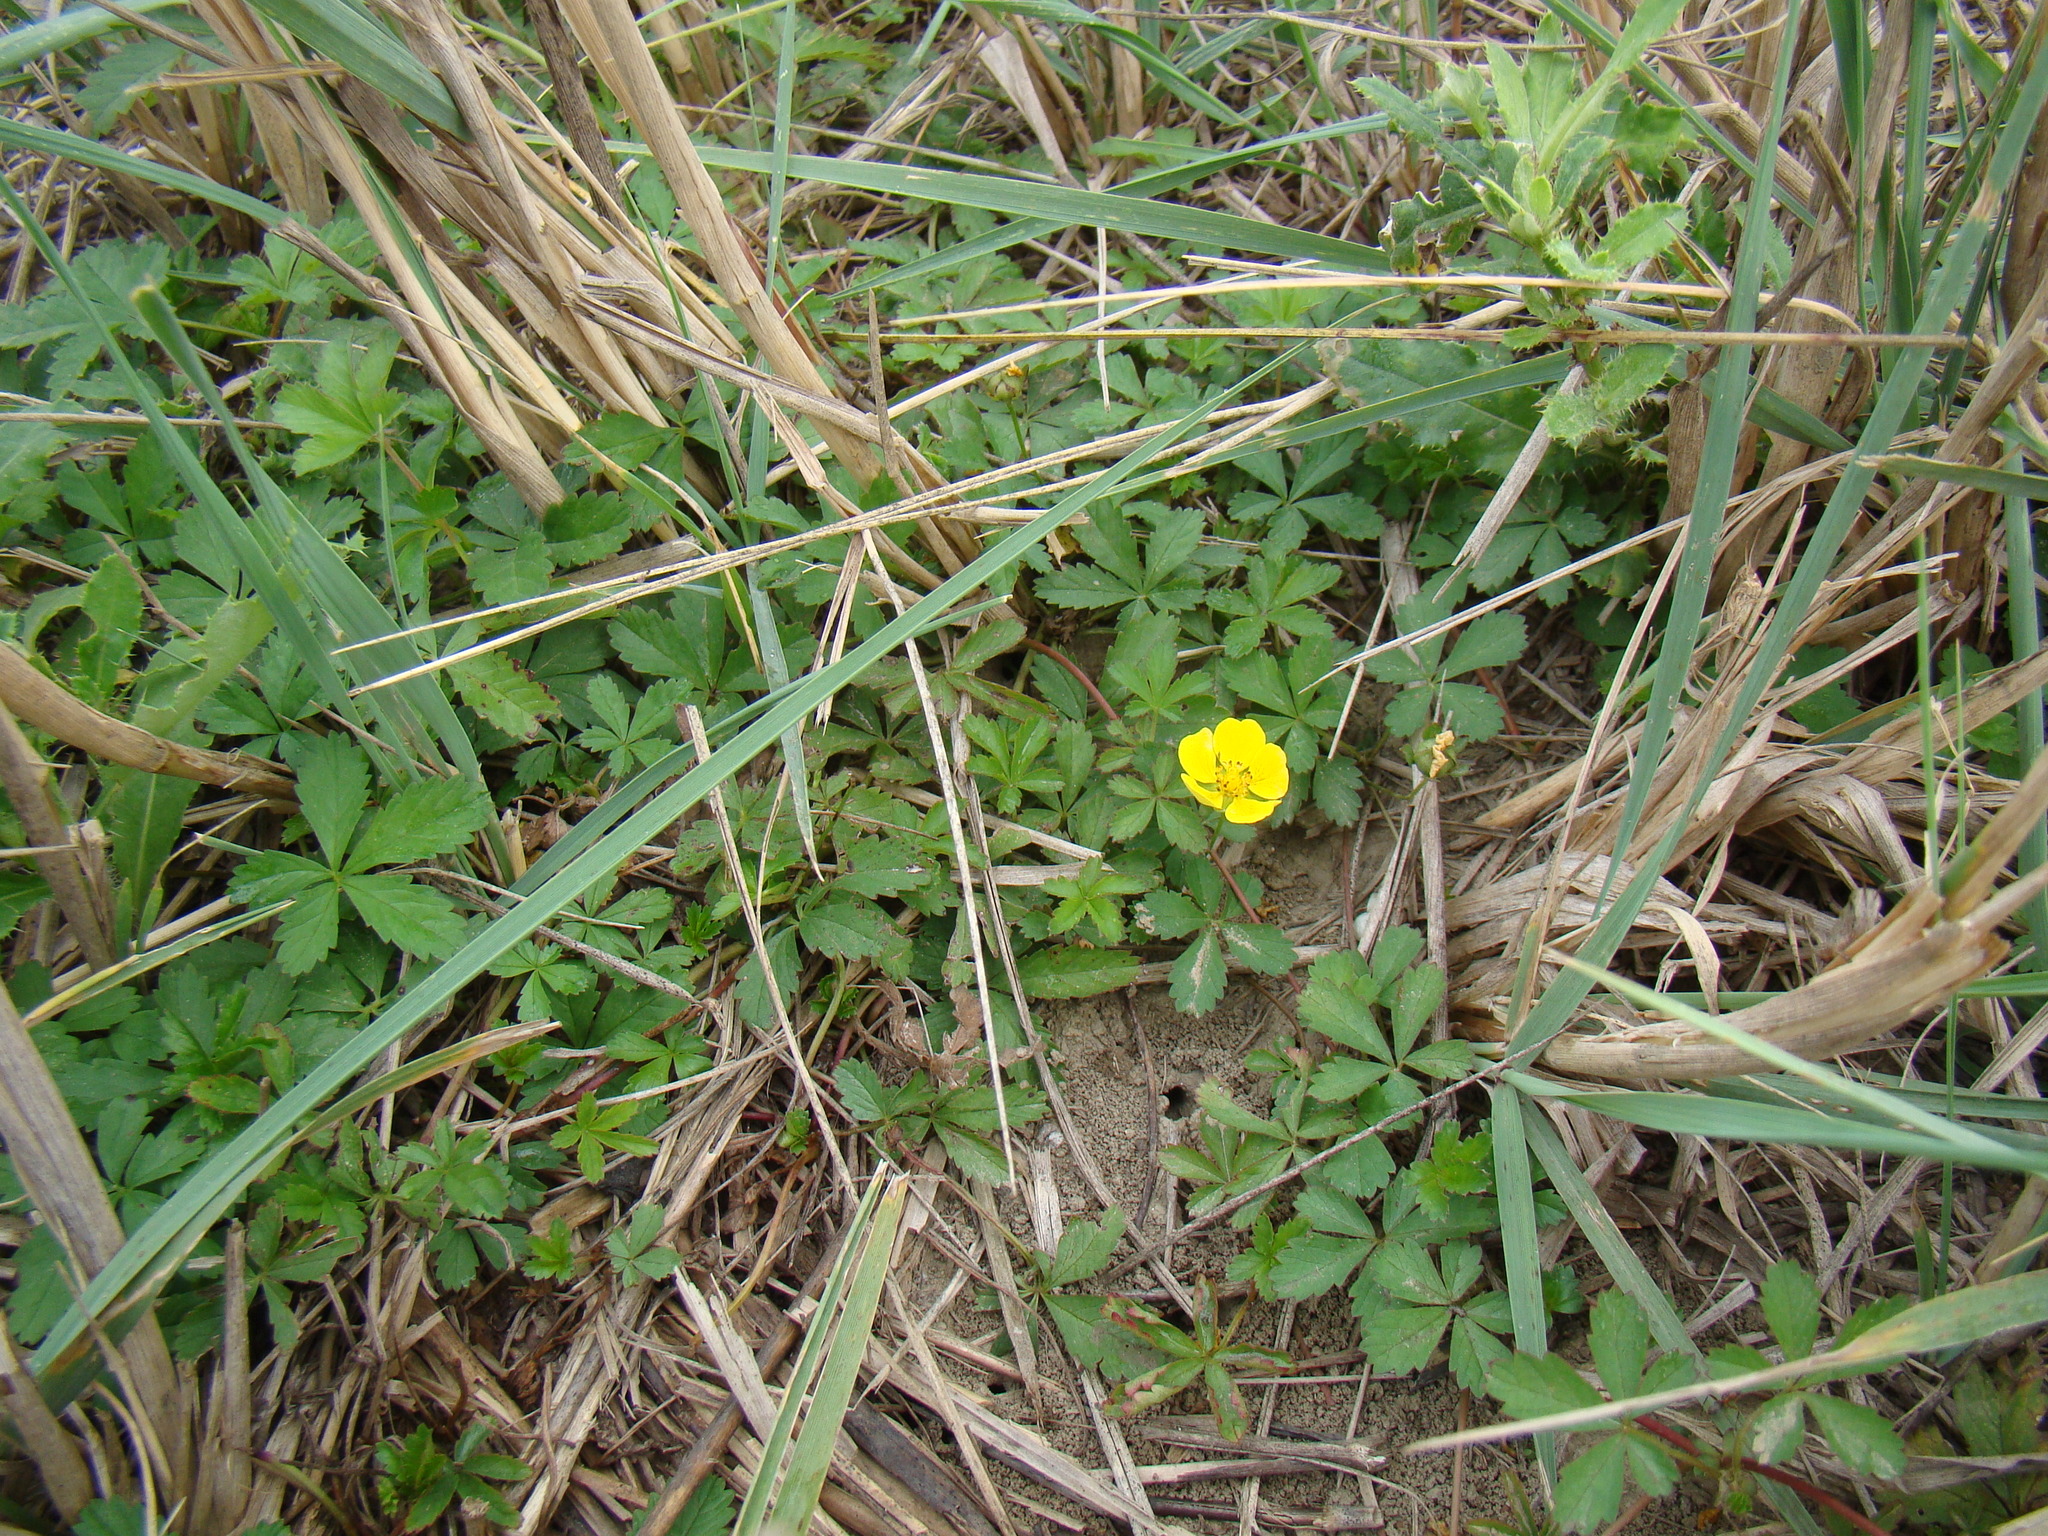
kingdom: Plantae
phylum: Tracheophyta
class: Magnoliopsida
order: Rosales
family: Rosaceae
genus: Potentilla
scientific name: Potentilla reptans
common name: Creeping cinquefoil
